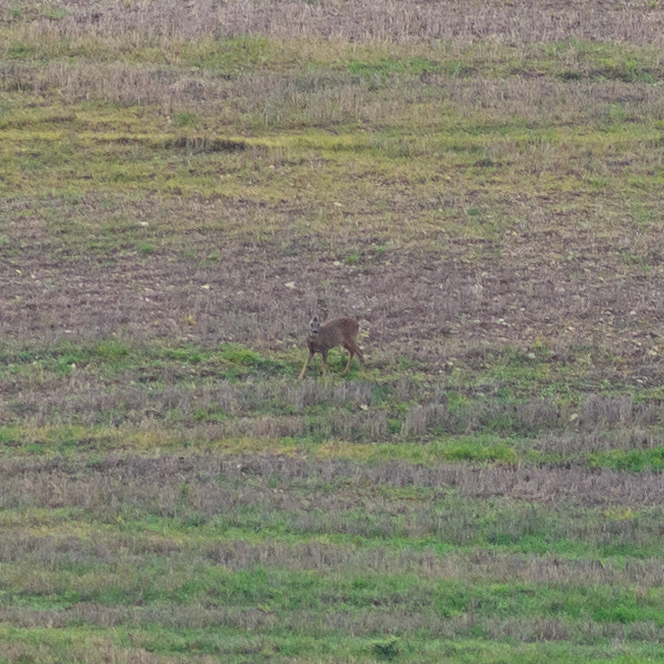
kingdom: Animalia
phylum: Chordata
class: Mammalia
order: Artiodactyla
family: Cervidae
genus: Capreolus
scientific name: Capreolus capreolus
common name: Western roe deer
